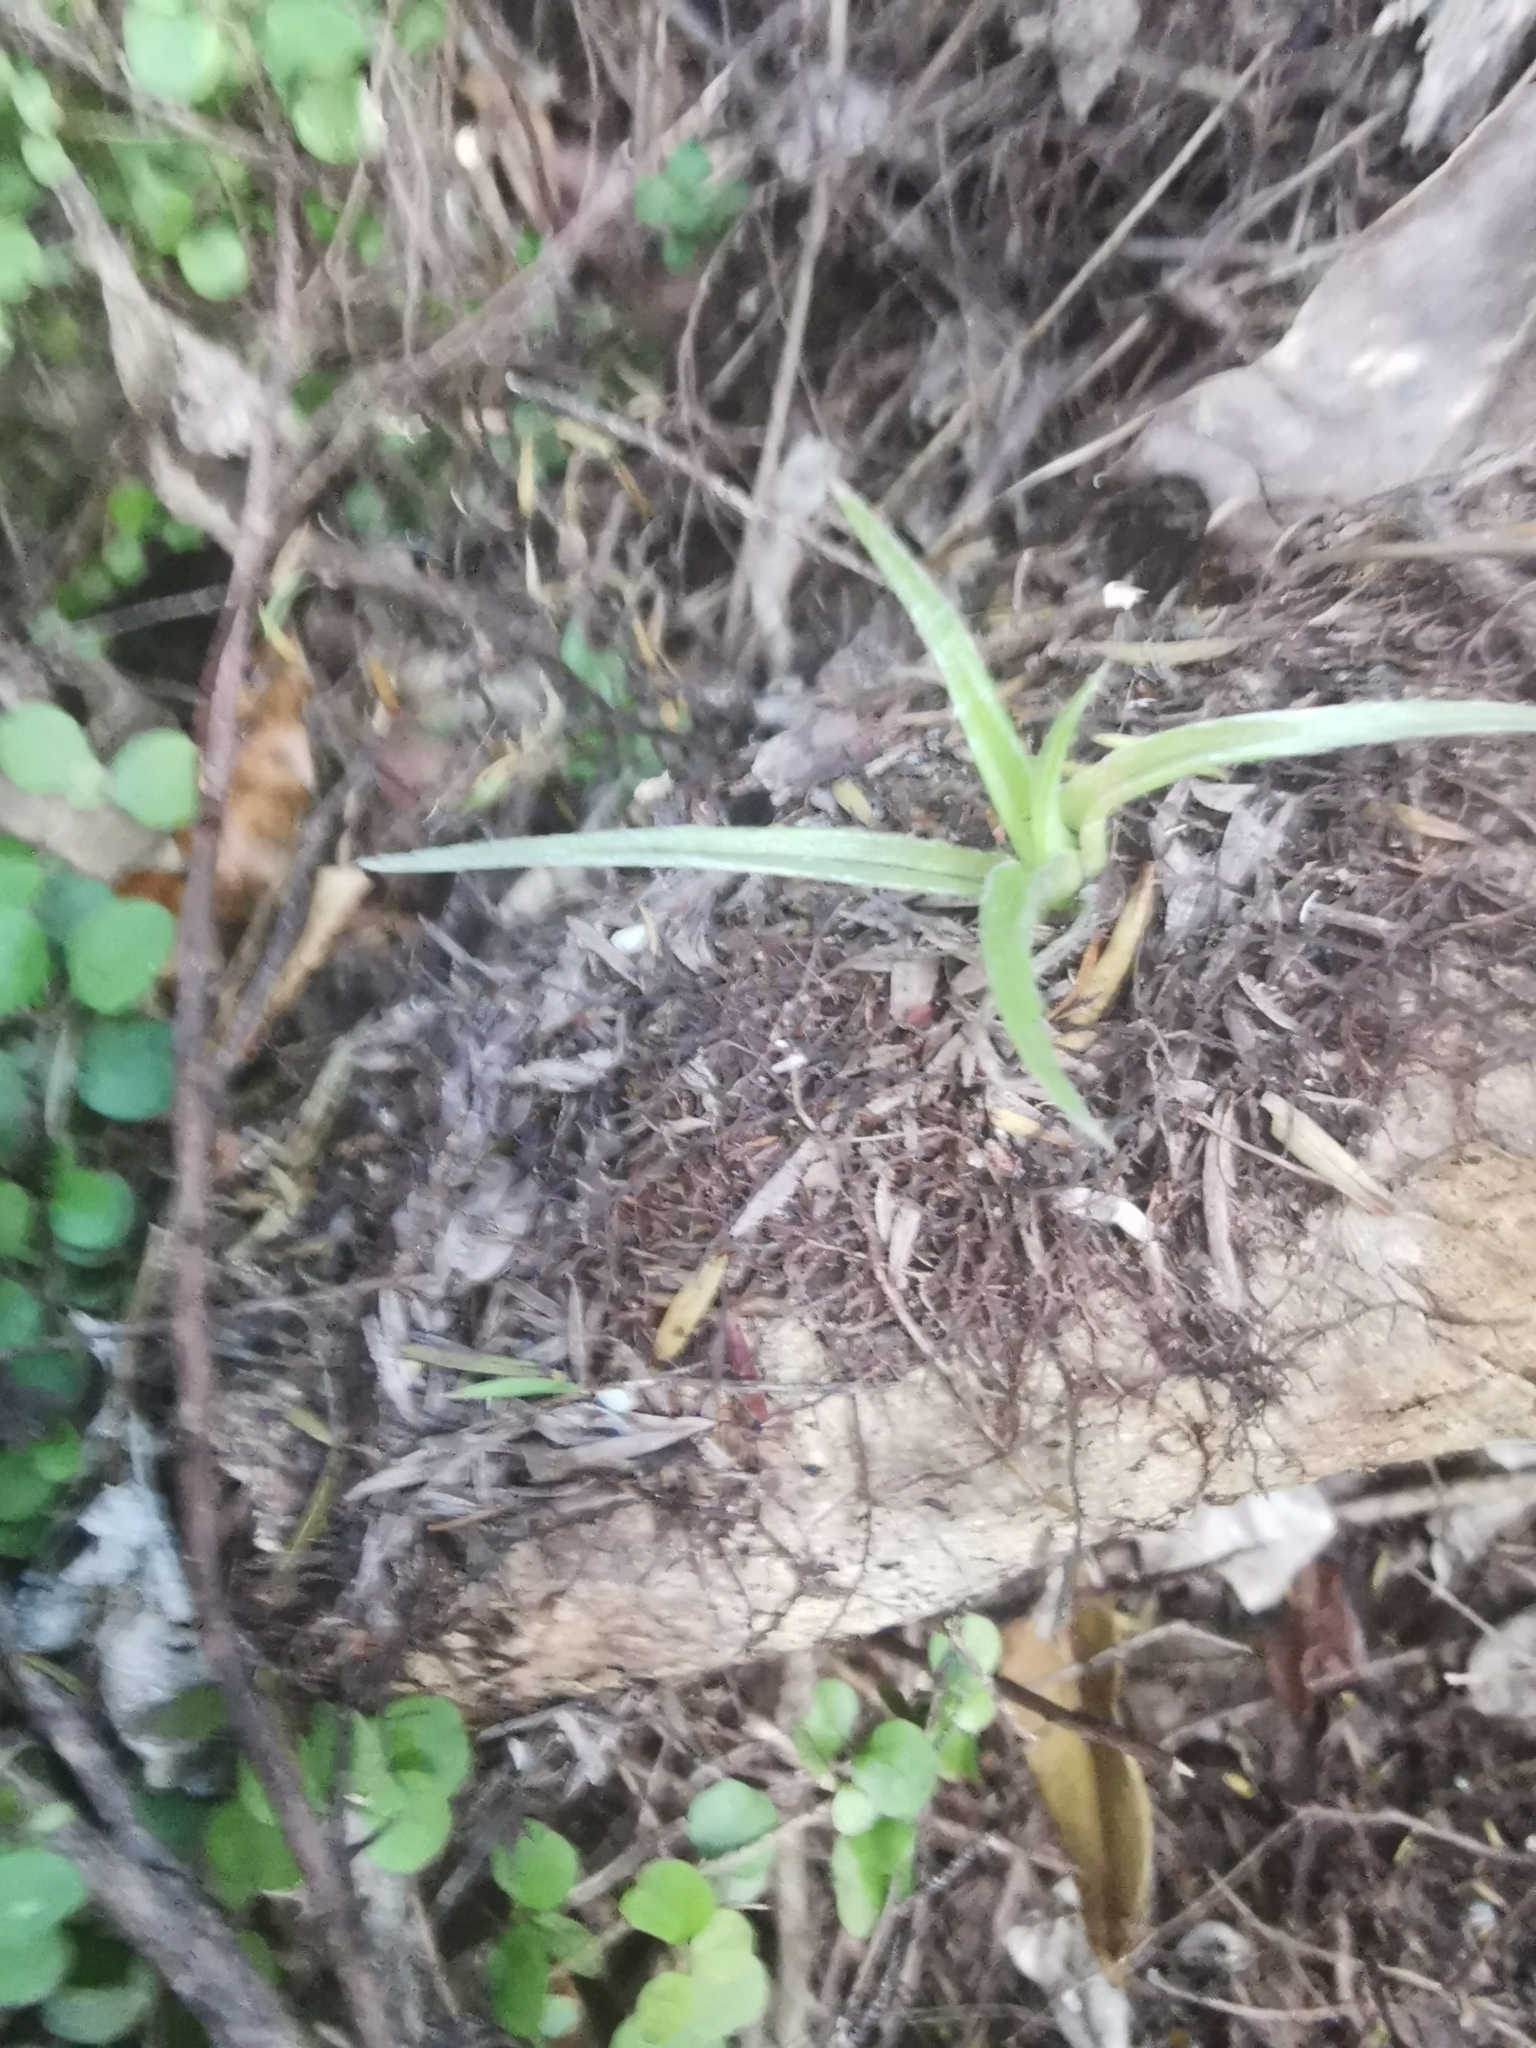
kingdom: Plantae
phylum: Tracheophyta
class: Liliopsida
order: Asparagales
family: Asteliaceae
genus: Astelia
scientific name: Astelia hastata
